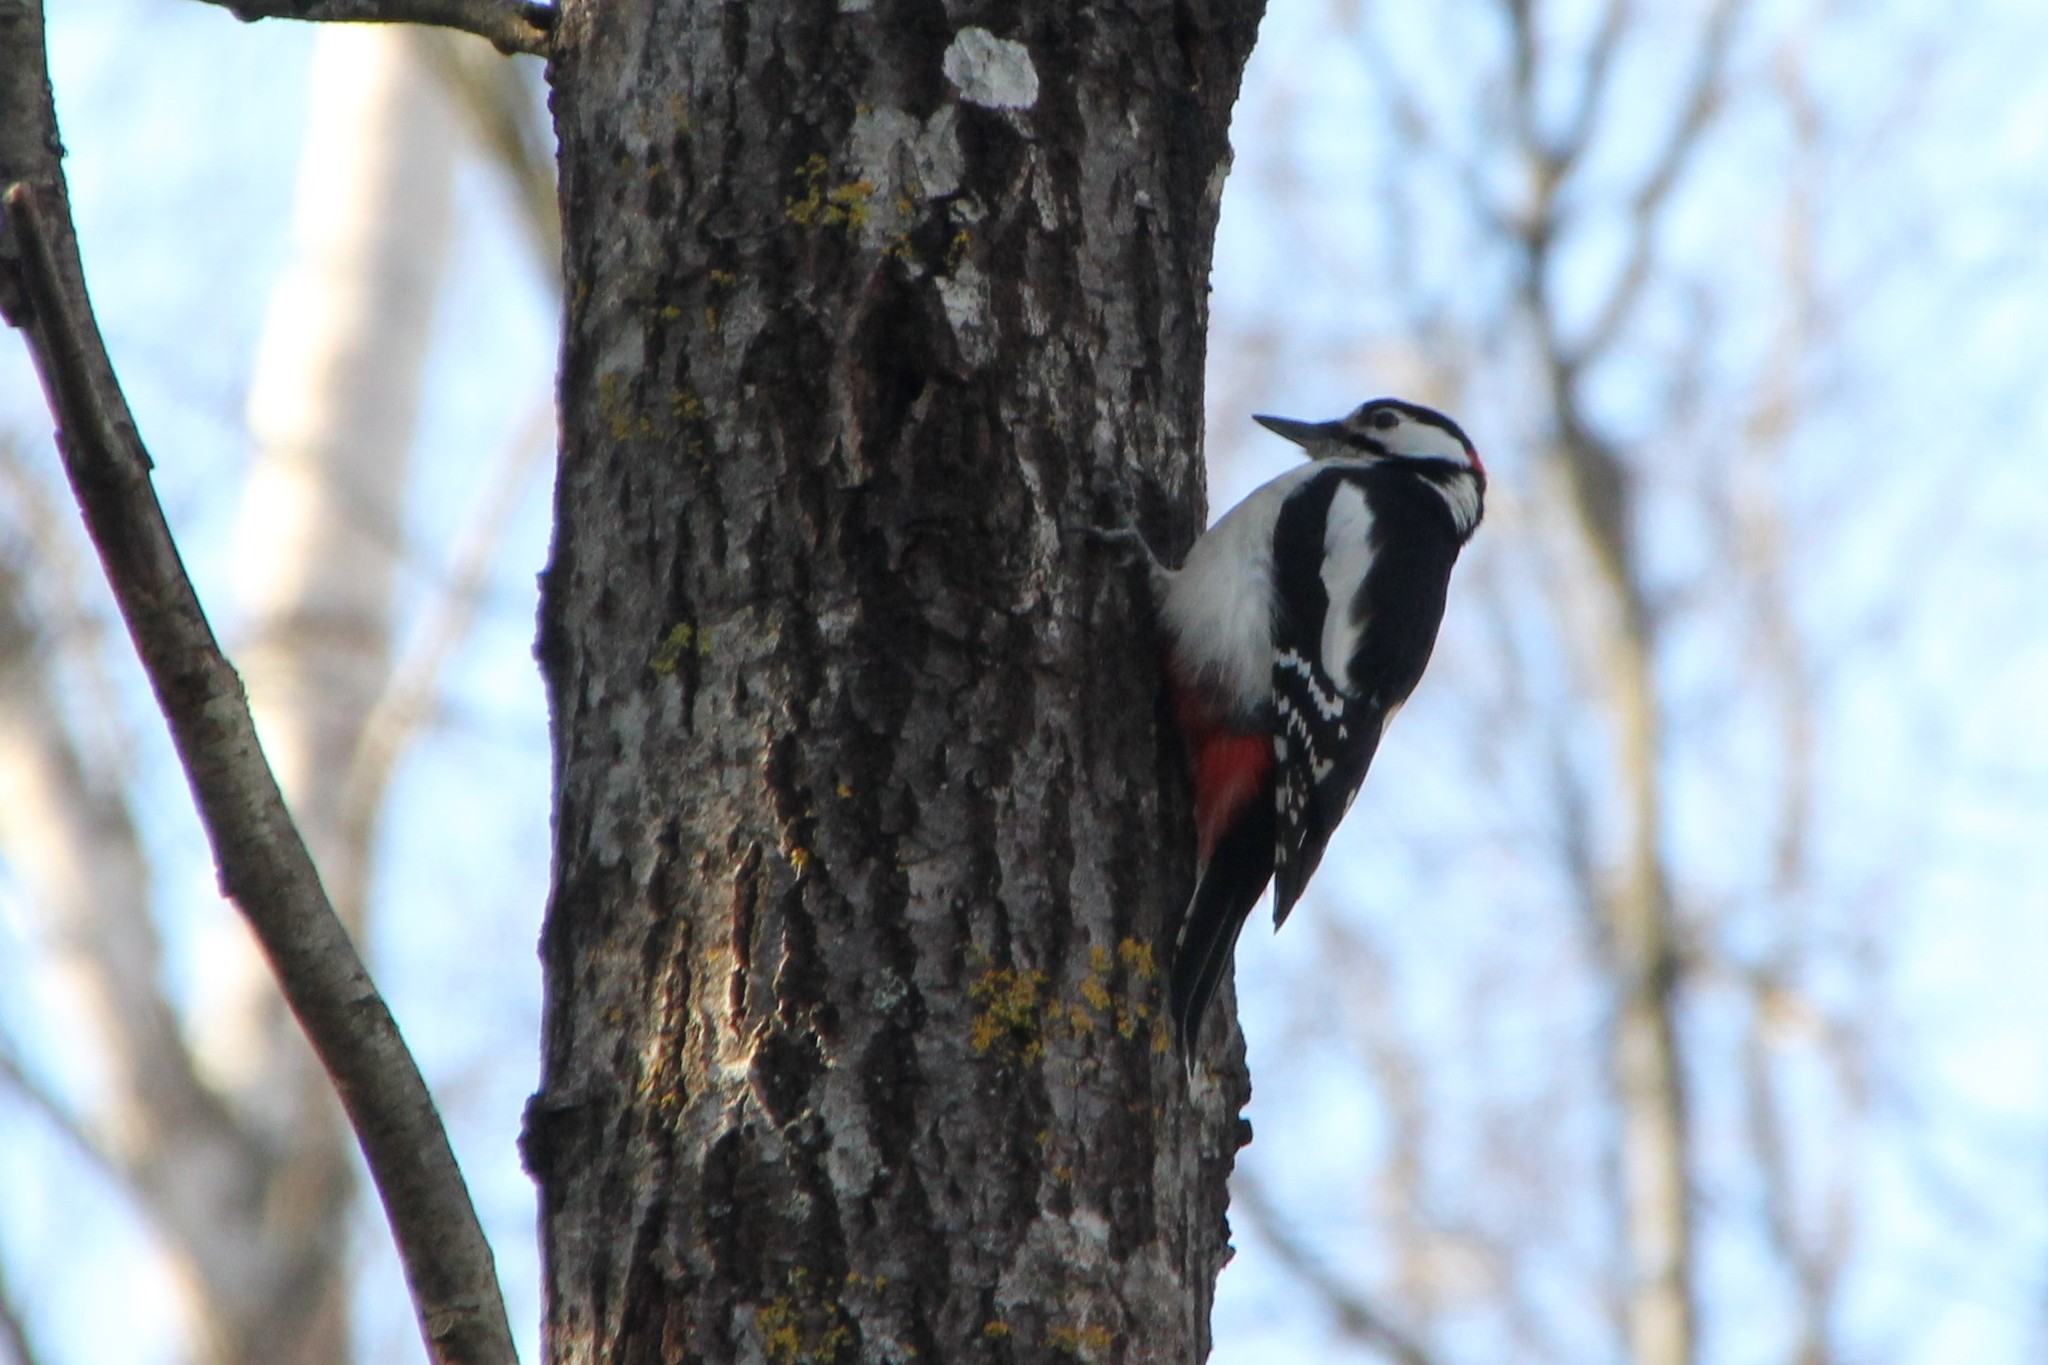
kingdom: Animalia
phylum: Chordata
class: Aves
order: Piciformes
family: Picidae
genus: Dendrocopos
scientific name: Dendrocopos major
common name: Great spotted woodpecker
